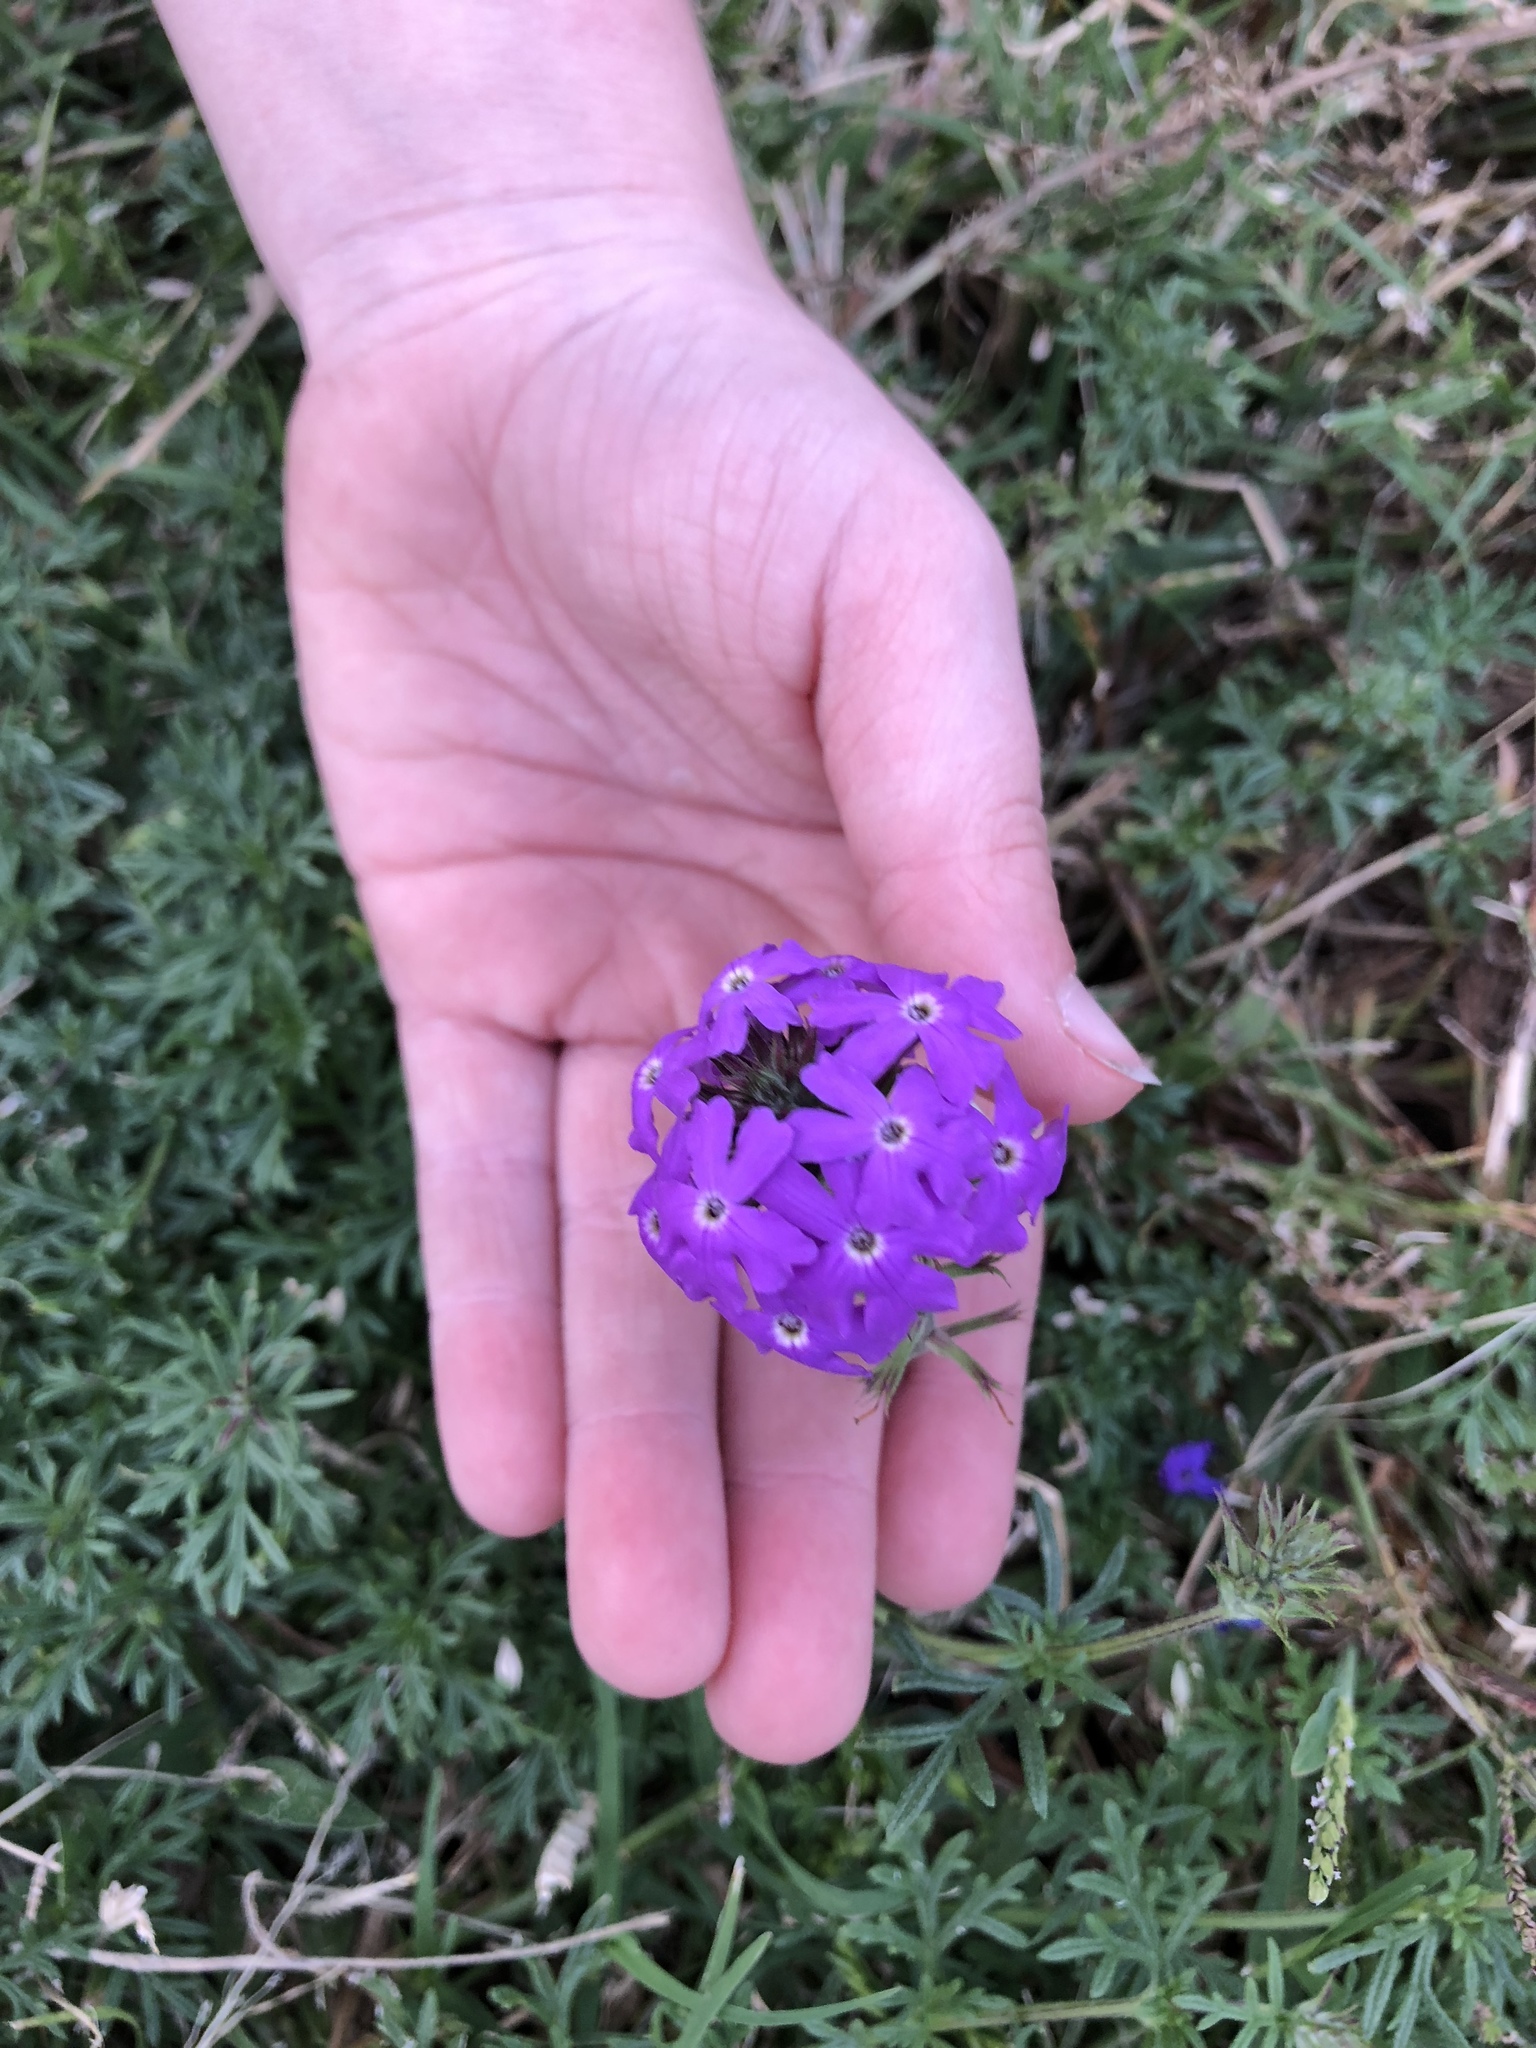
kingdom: Plantae
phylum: Tracheophyta
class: Magnoliopsida
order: Lamiales
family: Verbenaceae
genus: Verbena
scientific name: Verbena
